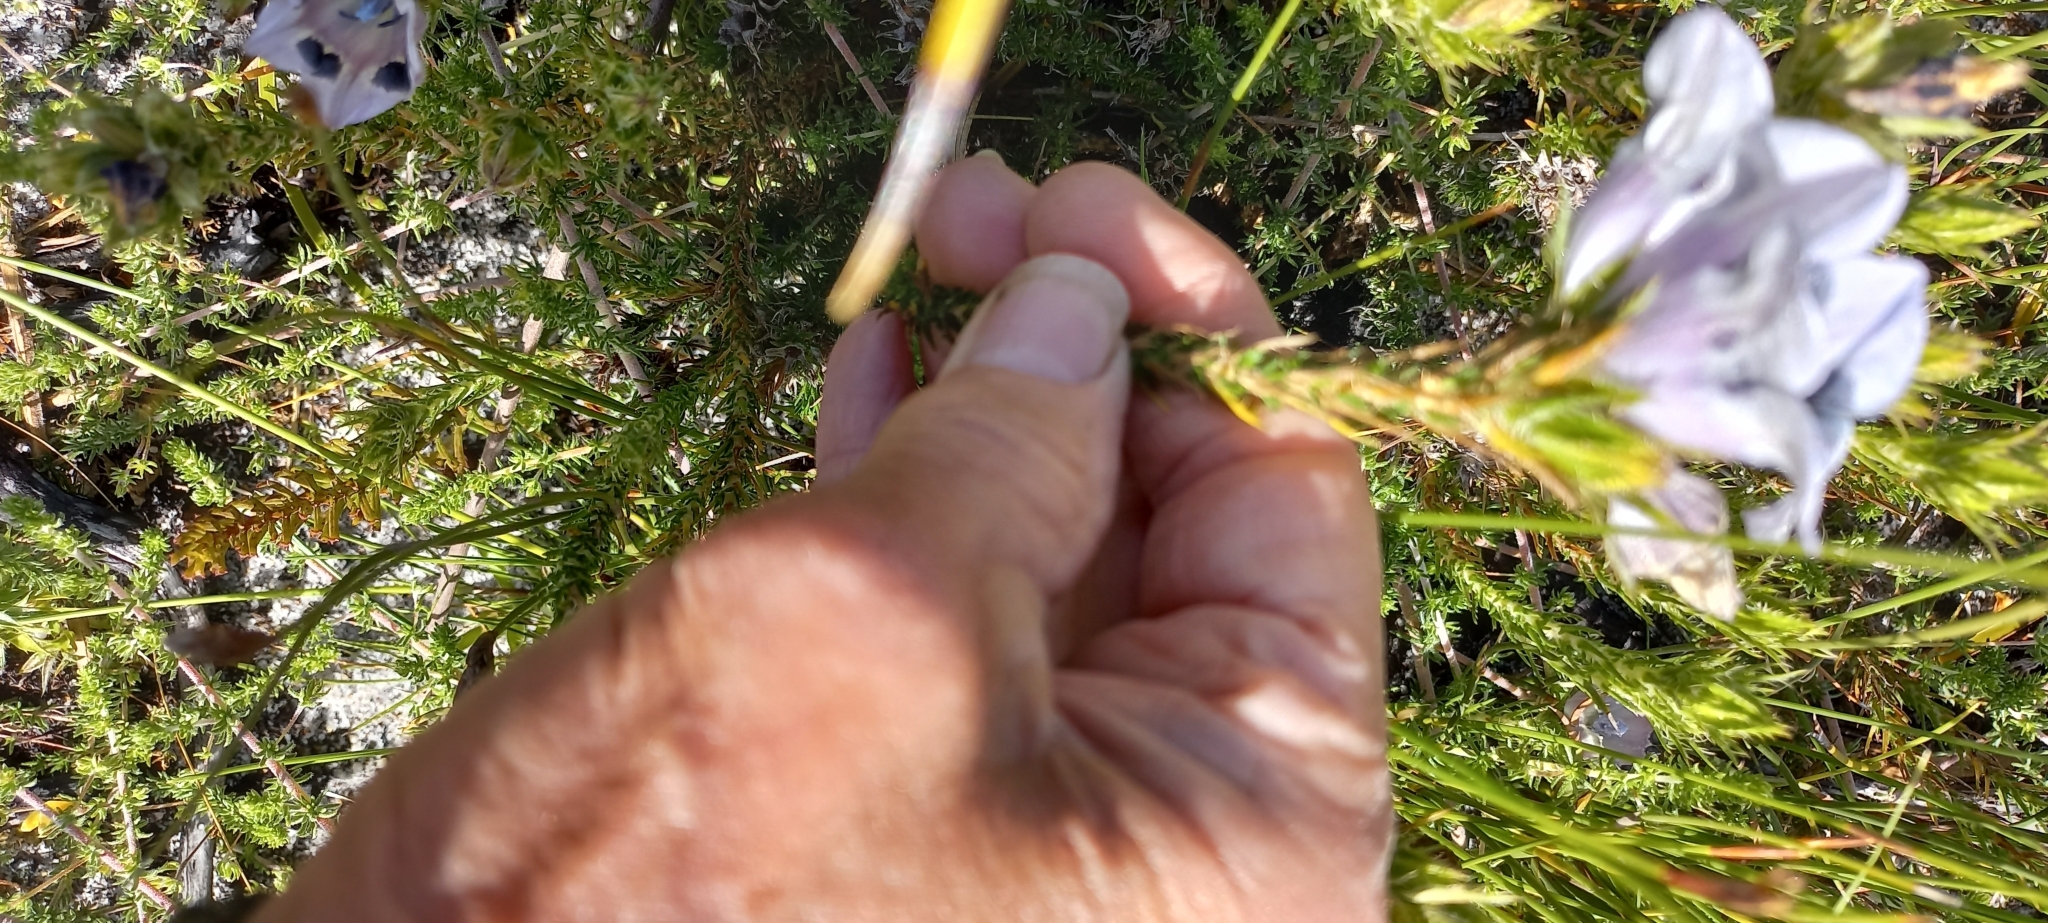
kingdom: Plantae
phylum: Tracheophyta
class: Magnoliopsida
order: Asterales
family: Campanulaceae
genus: Roella
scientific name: Roella maculata
